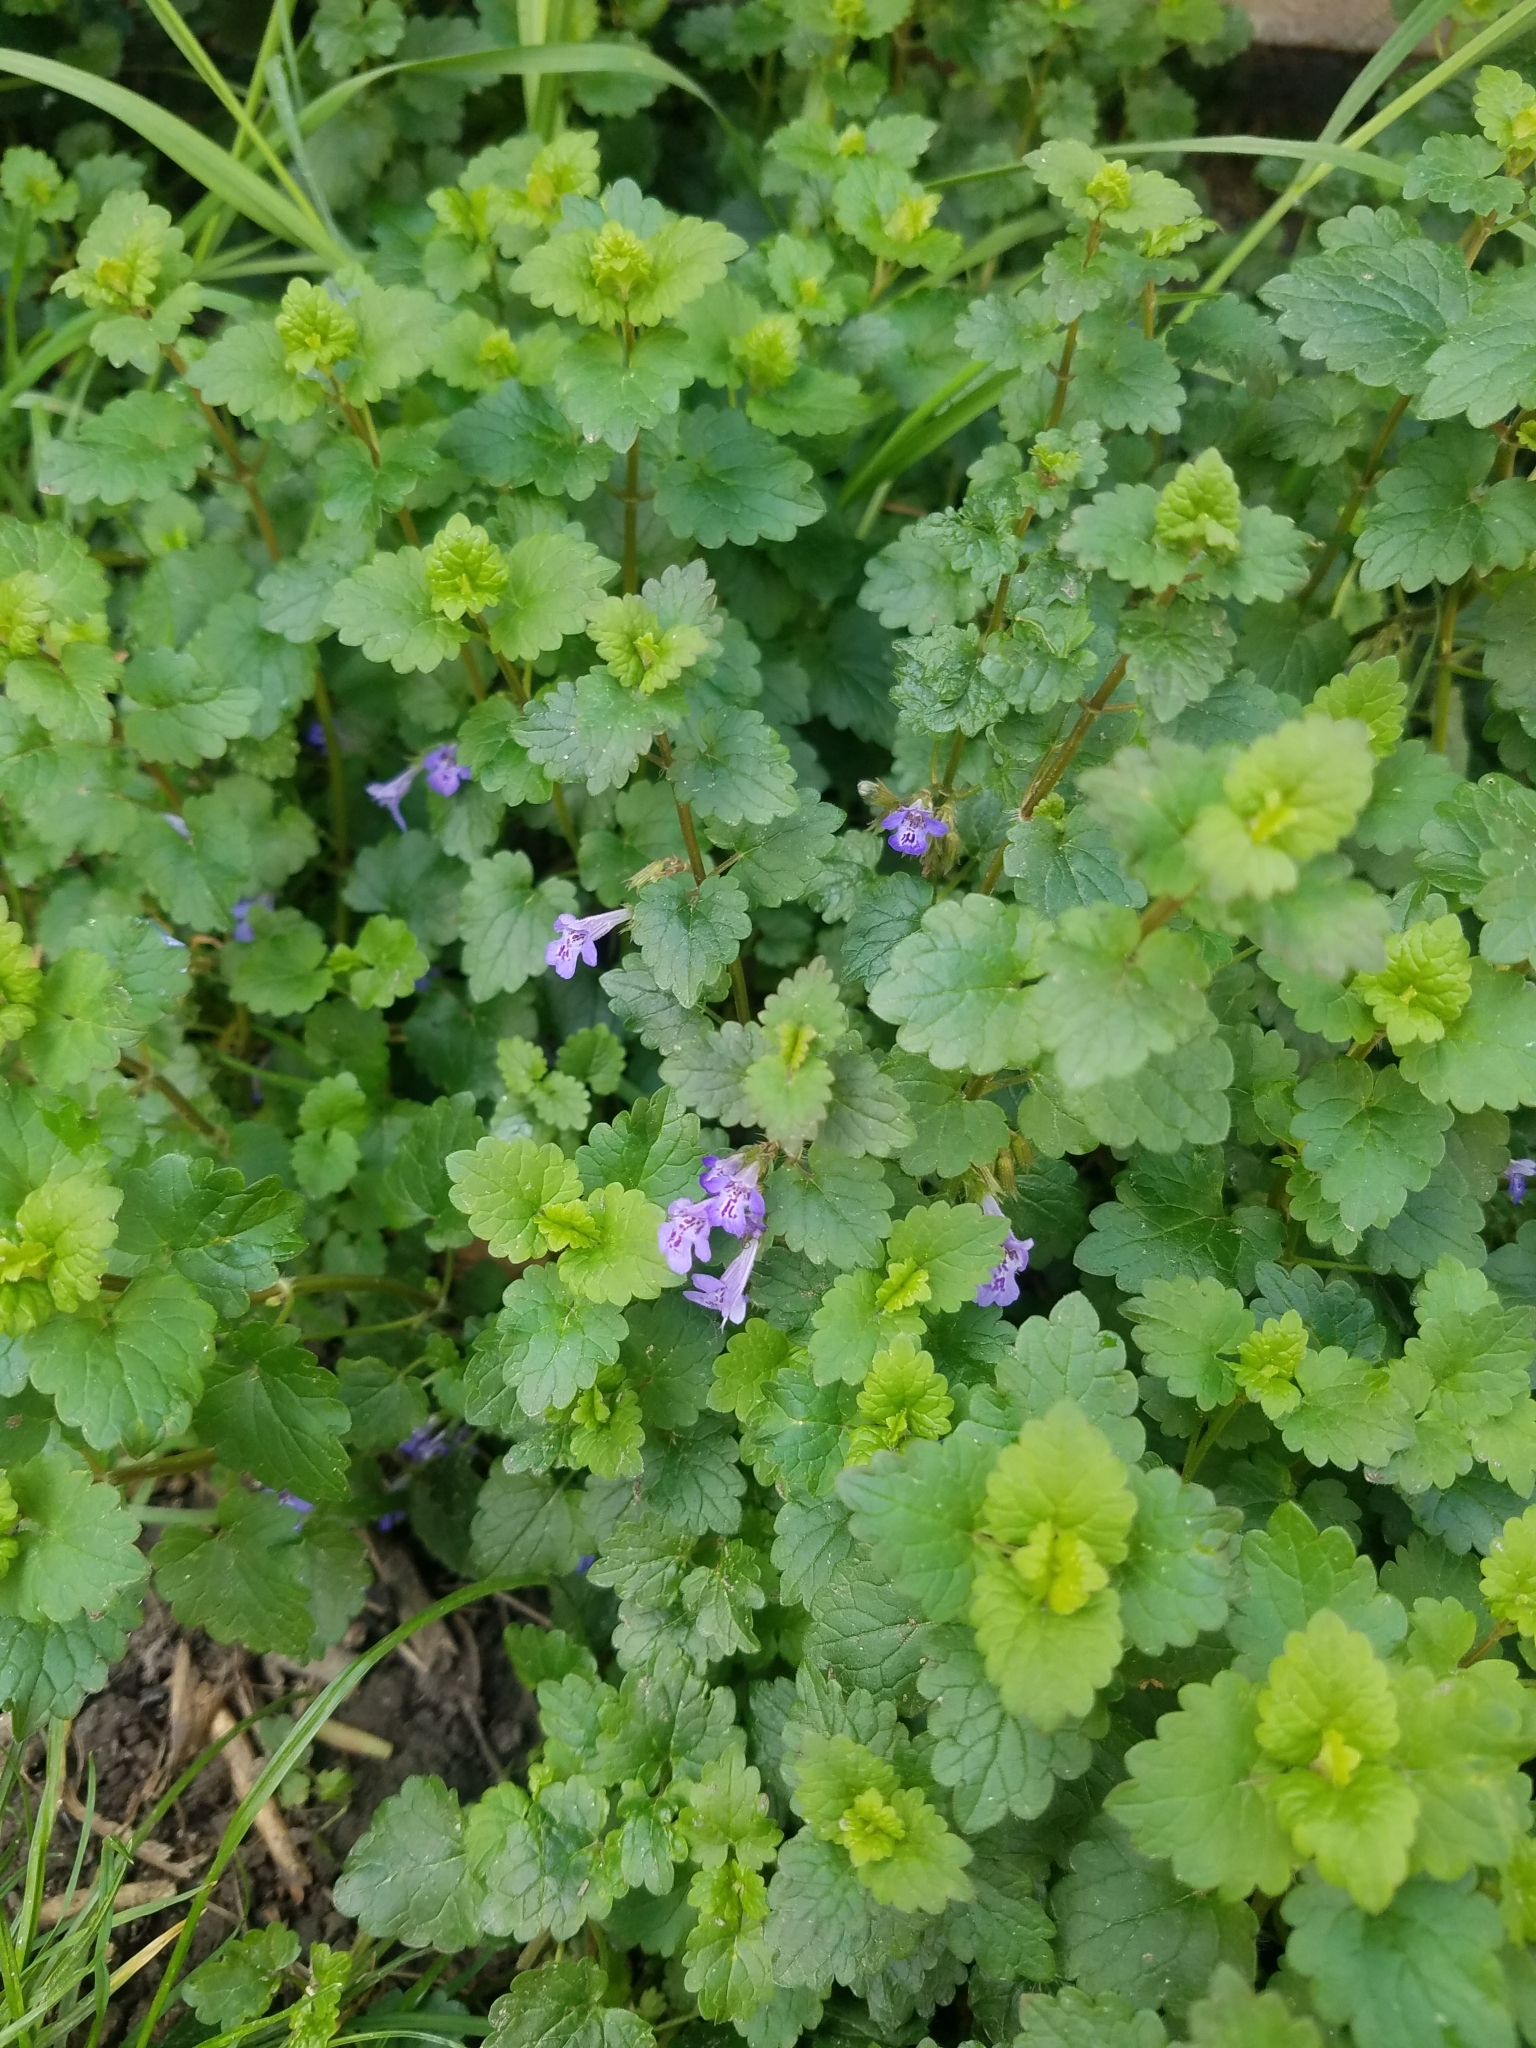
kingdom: Plantae
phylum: Tracheophyta
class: Magnoliopsida
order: Lamiales
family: Lamiaceae
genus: Glechoma
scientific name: Glechoma hederacea
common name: Ground ivy
